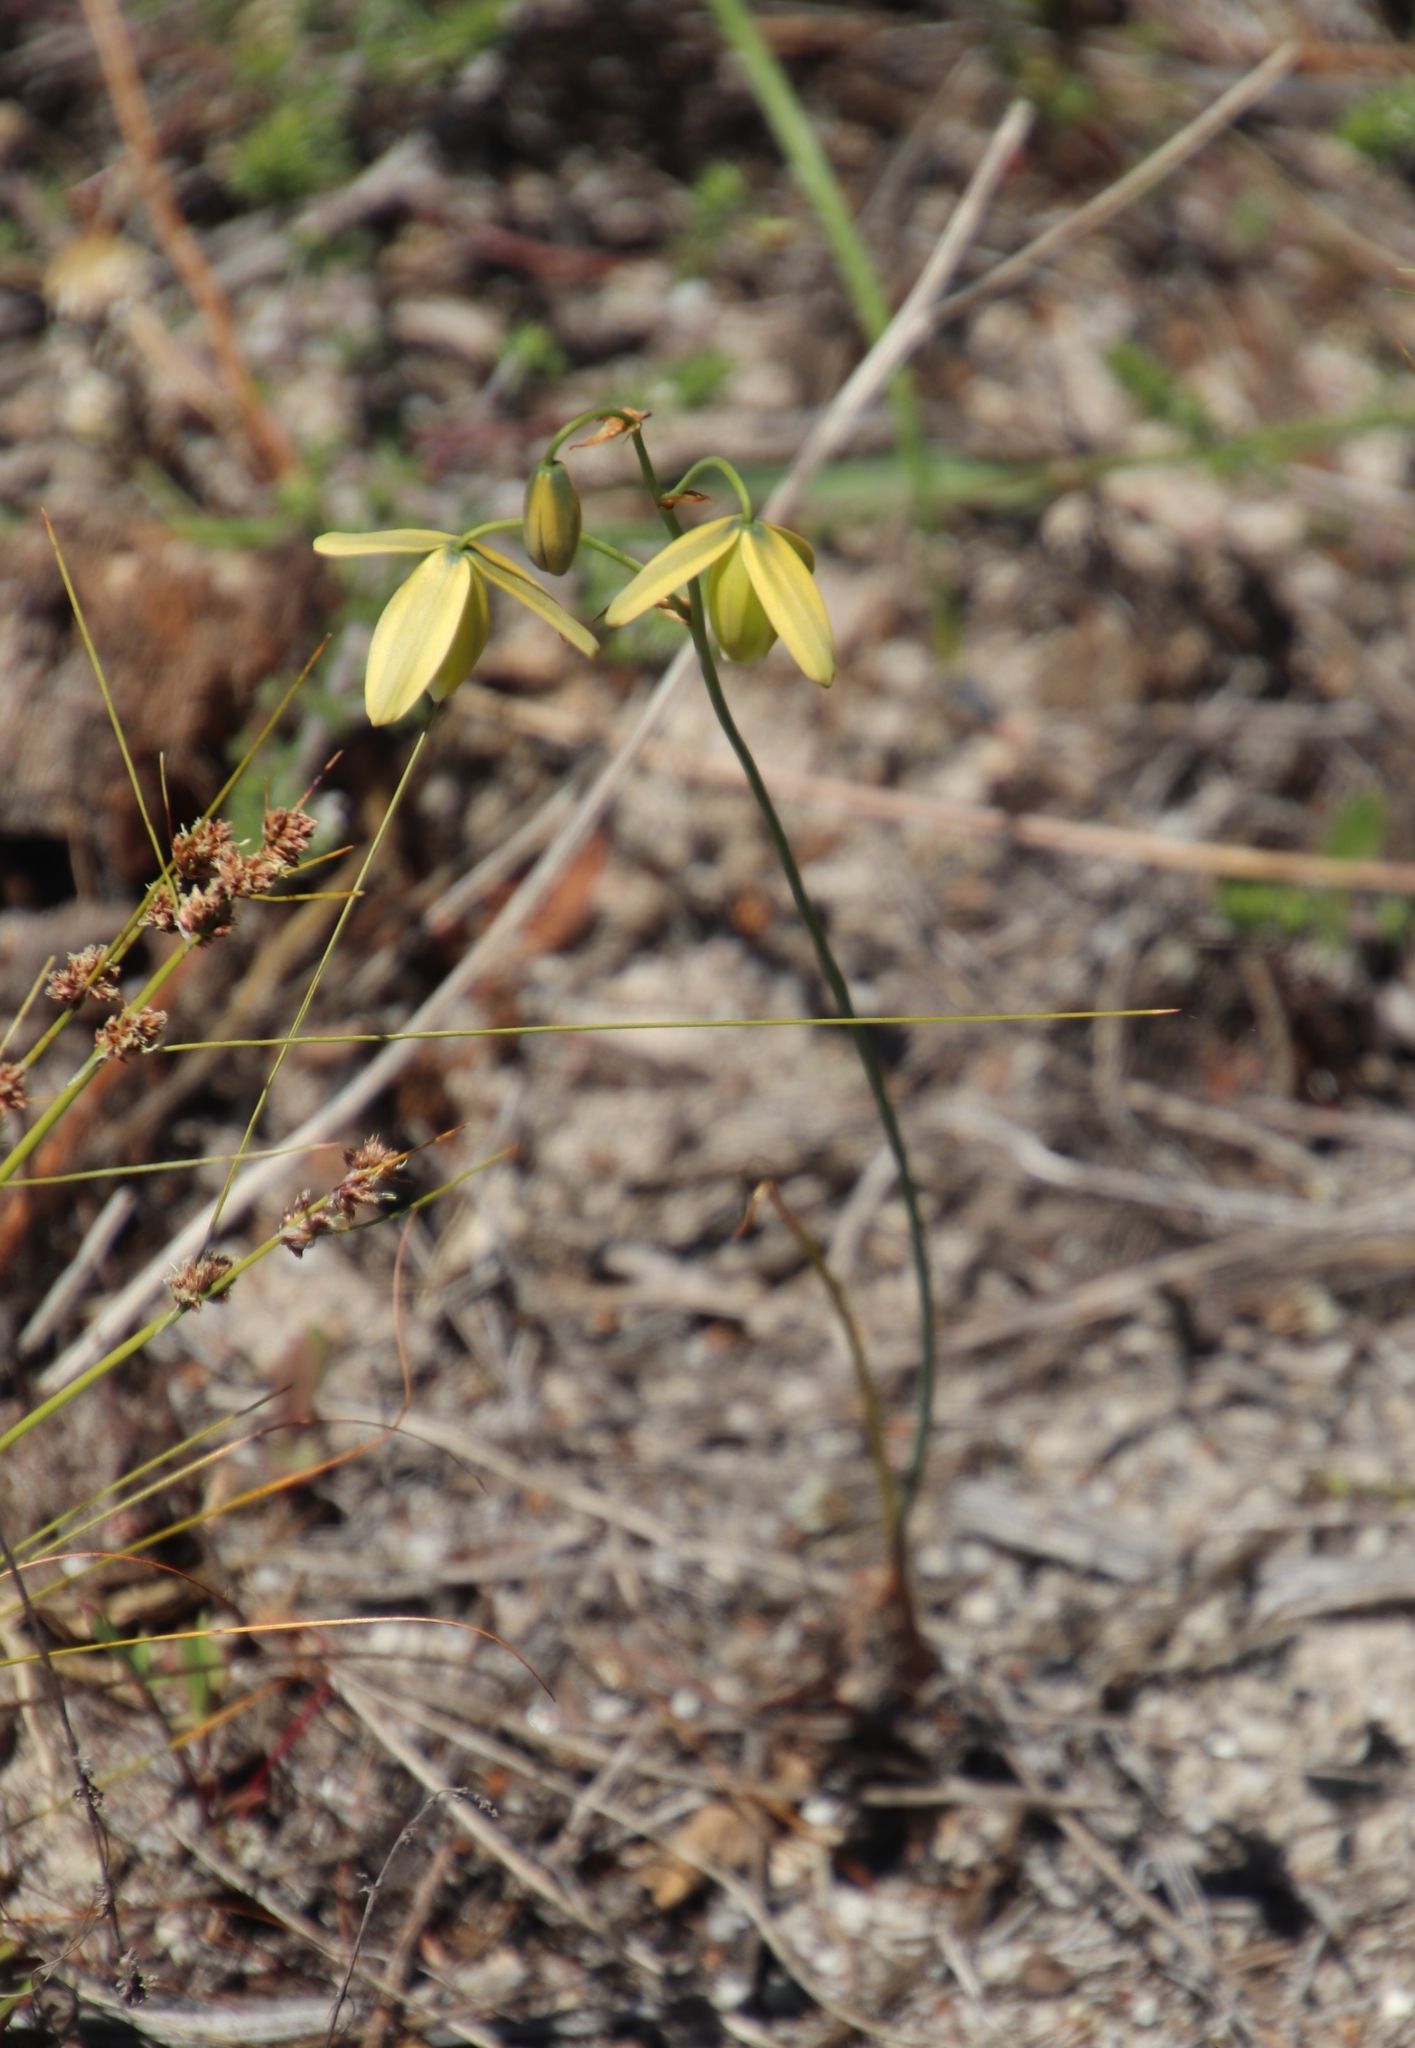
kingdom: Plantae
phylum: Tracheophyta
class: Liliopsida
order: Asparagales
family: Asparagaceae
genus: Albuca
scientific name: Albuca cooperi
